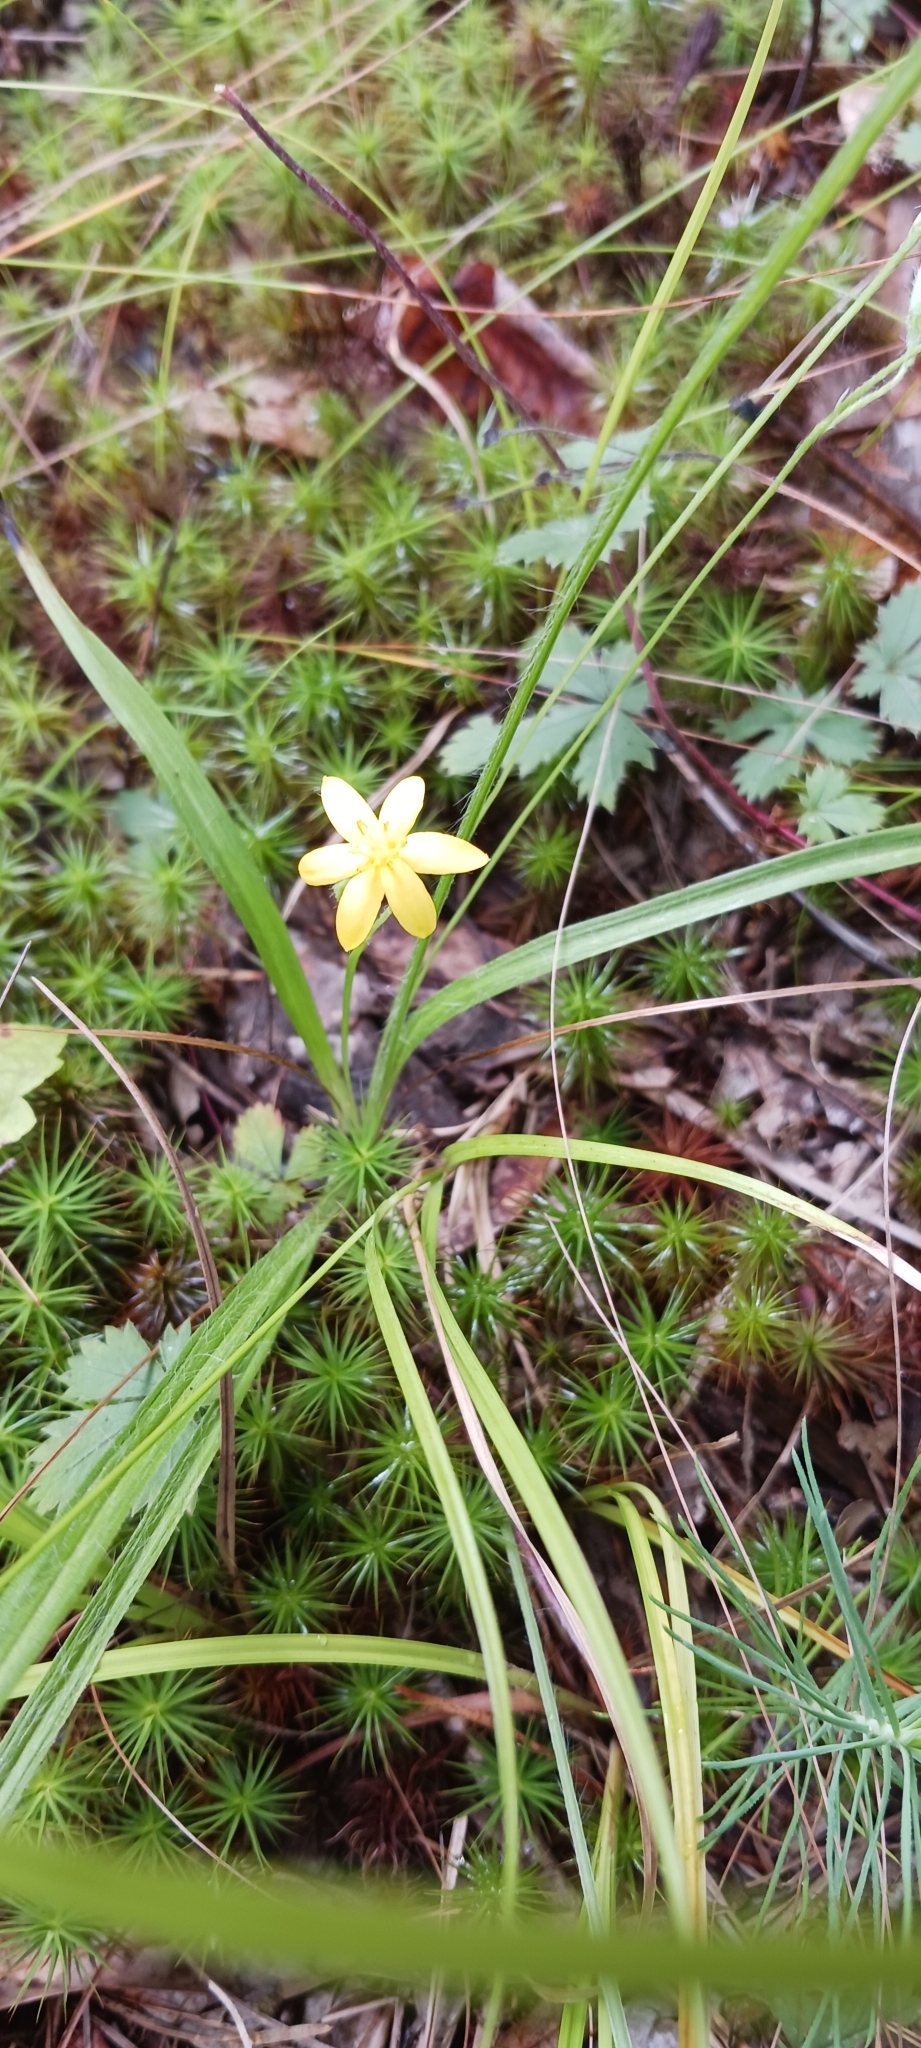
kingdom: Plantae
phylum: Tracheophyta
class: Liliopsida
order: Asparagales
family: Hypoxidaceae
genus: Hypoxis
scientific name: Hypoxis hirsuta
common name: Common goldstar
